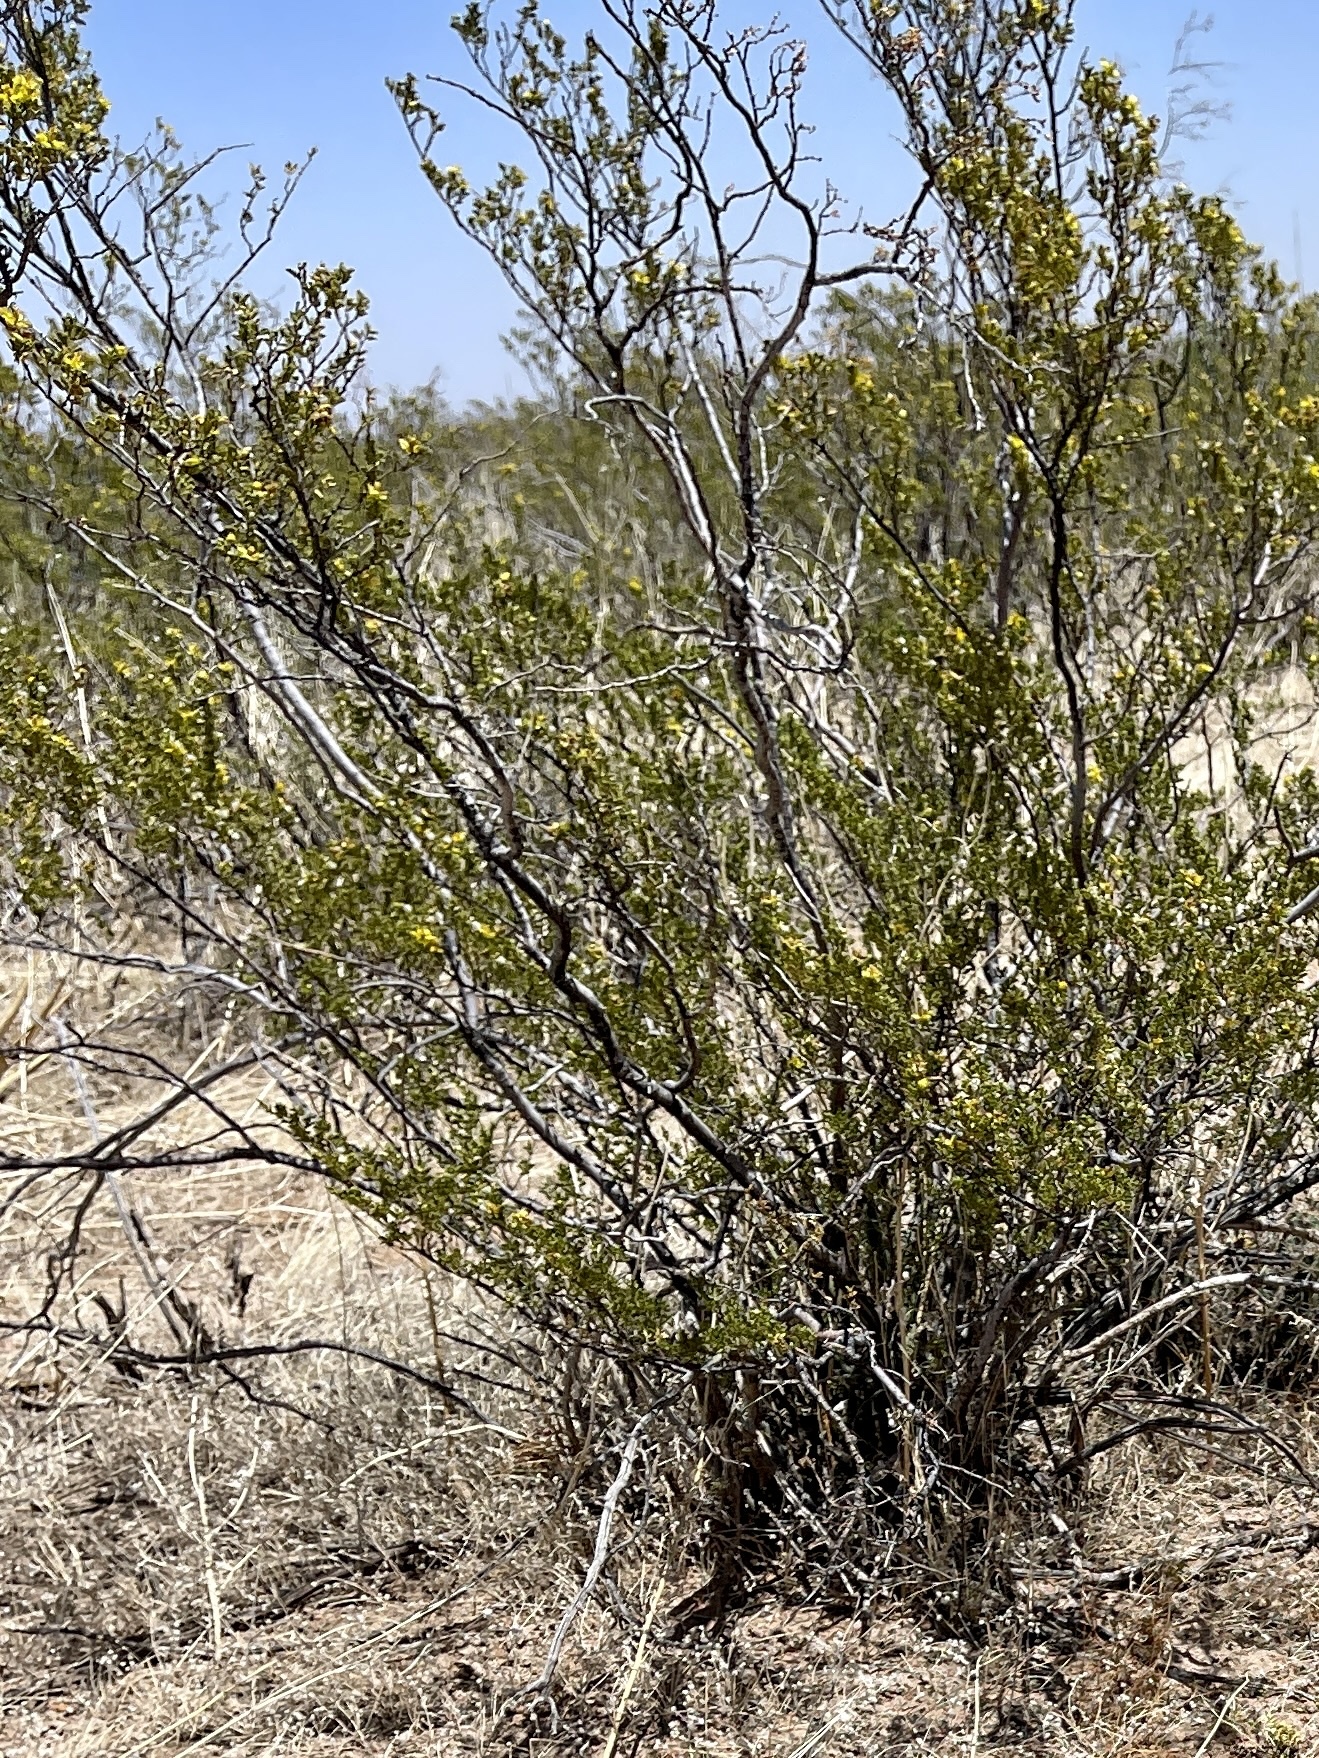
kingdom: Plantae
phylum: Tracheophyta
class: Magnoliopsida
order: Zygophyllales
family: Zygophyllaceae
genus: Larrea
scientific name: Larrea tridentata
